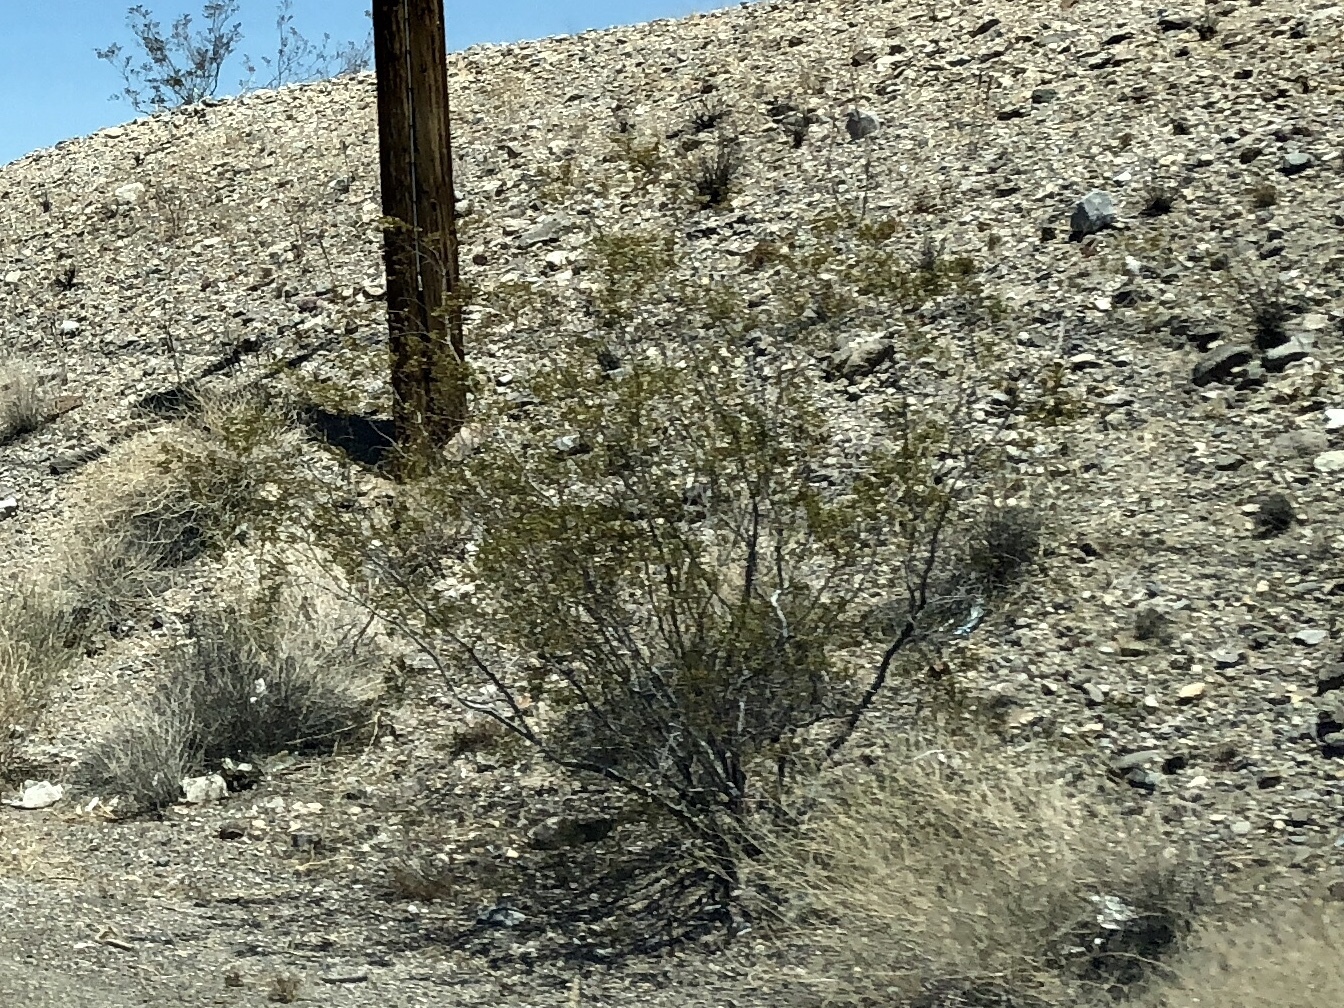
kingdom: Plantae
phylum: Tracheophyta
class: Magnoliopsida
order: Zygophyllales
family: Zygophyllaceae
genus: Larrea
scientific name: Larrea tridentata
